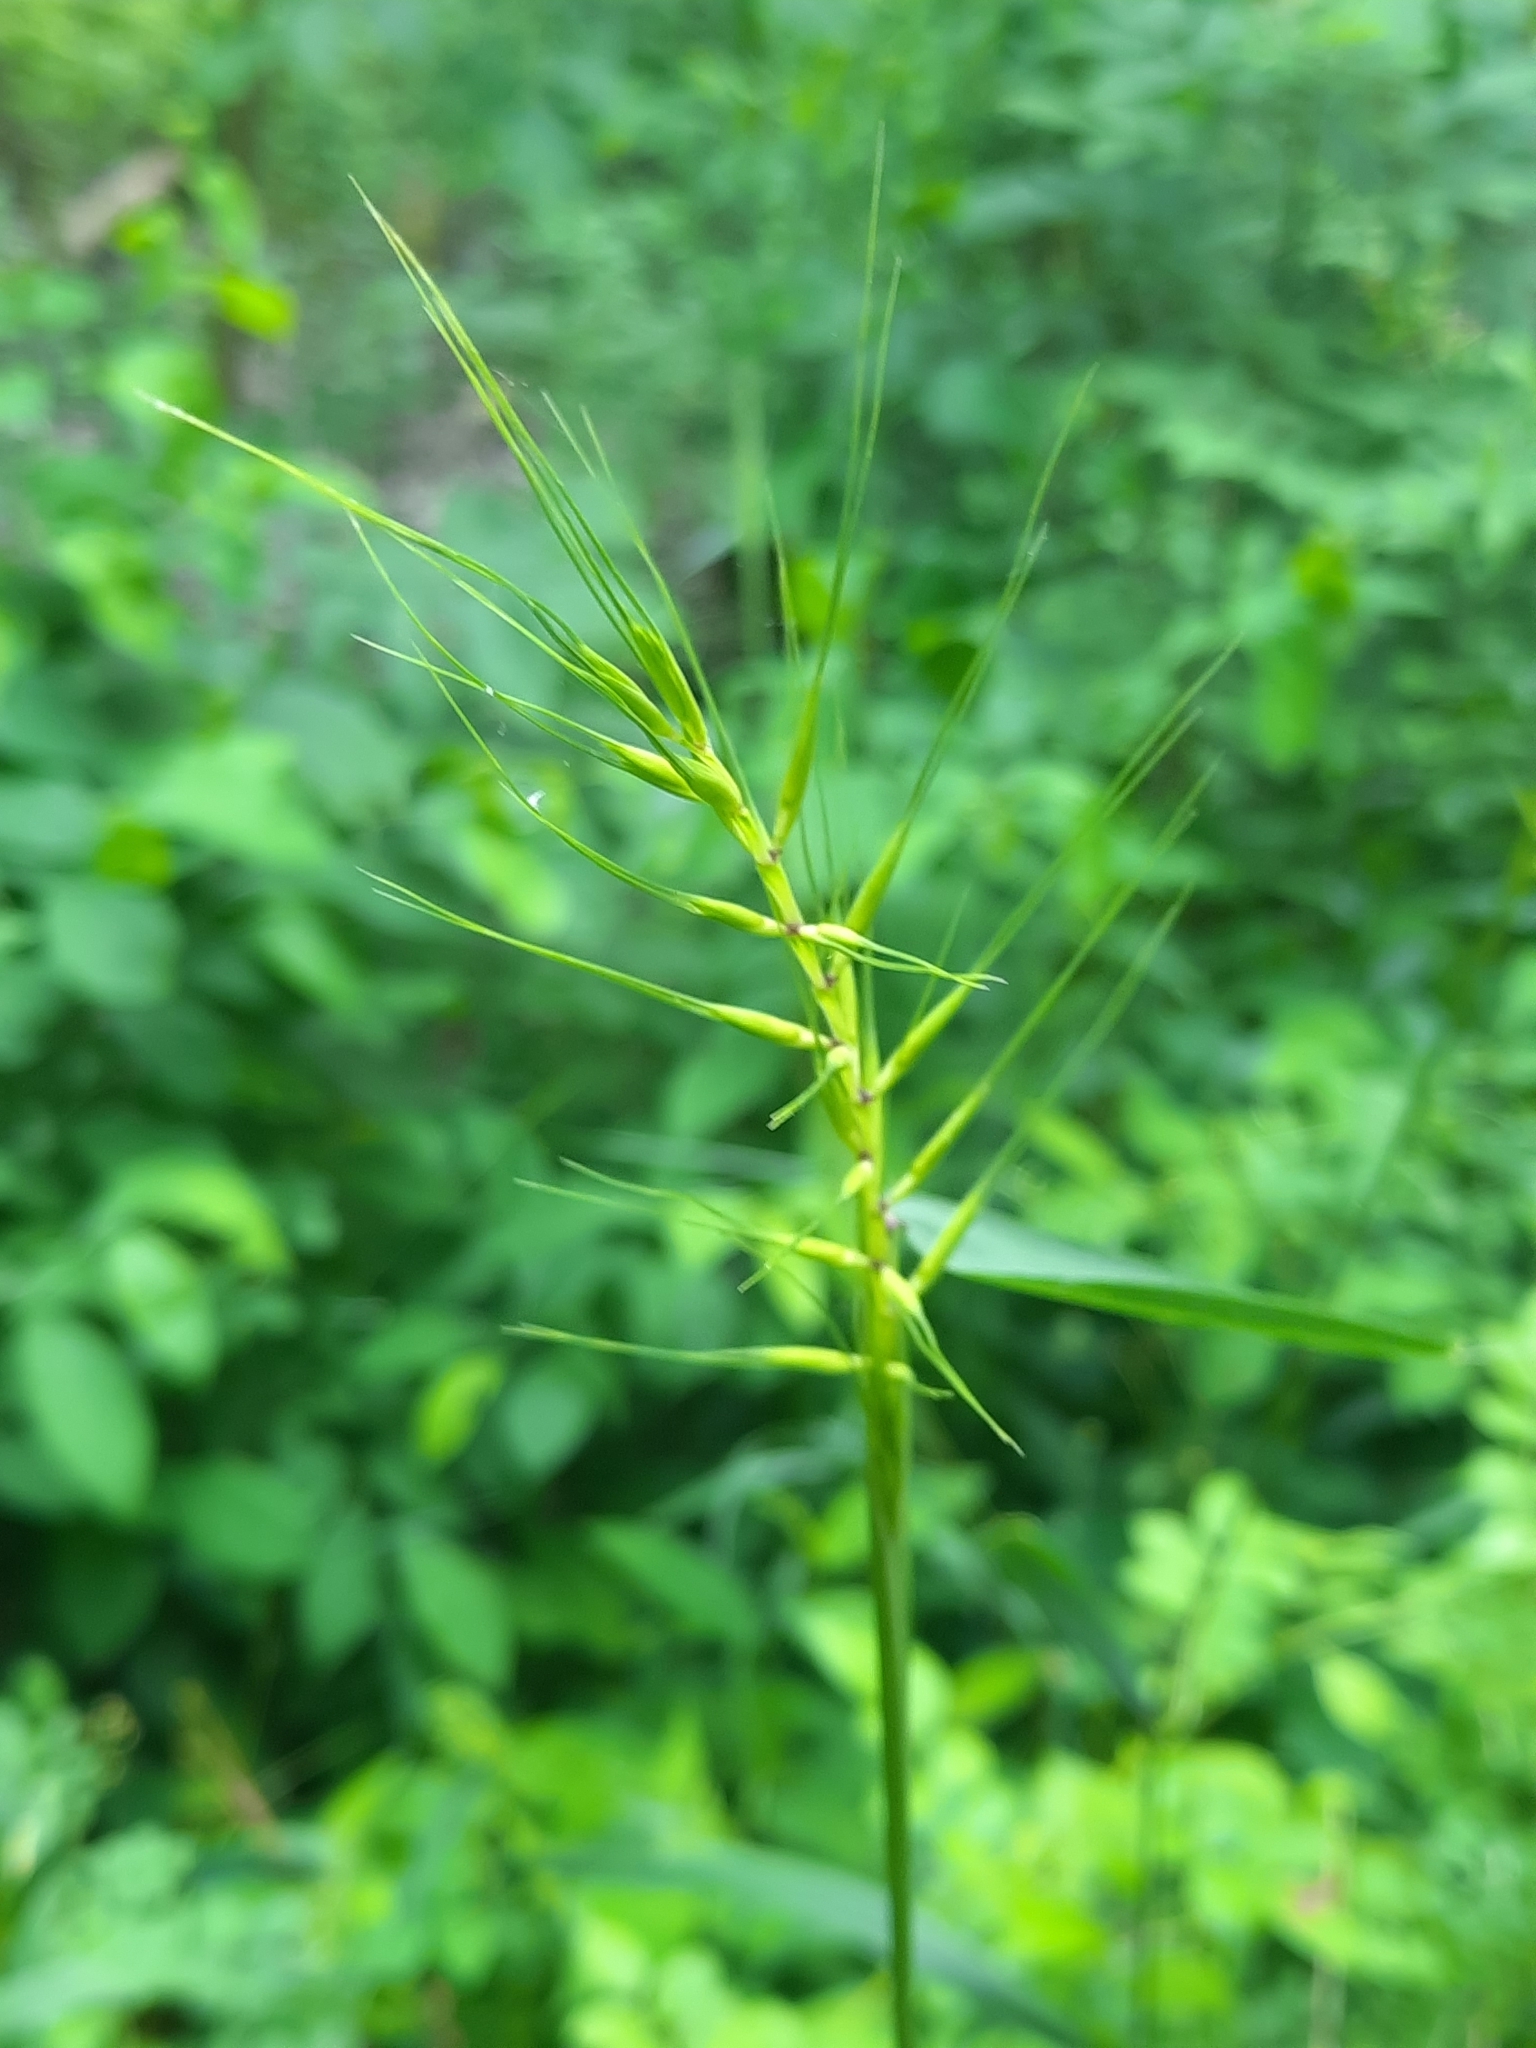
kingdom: Plantae
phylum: Tracheophyta
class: Liliopsida
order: Poales
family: Poaceae
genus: Elymus
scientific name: Elymus hystrix
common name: Bottlebrush grass
